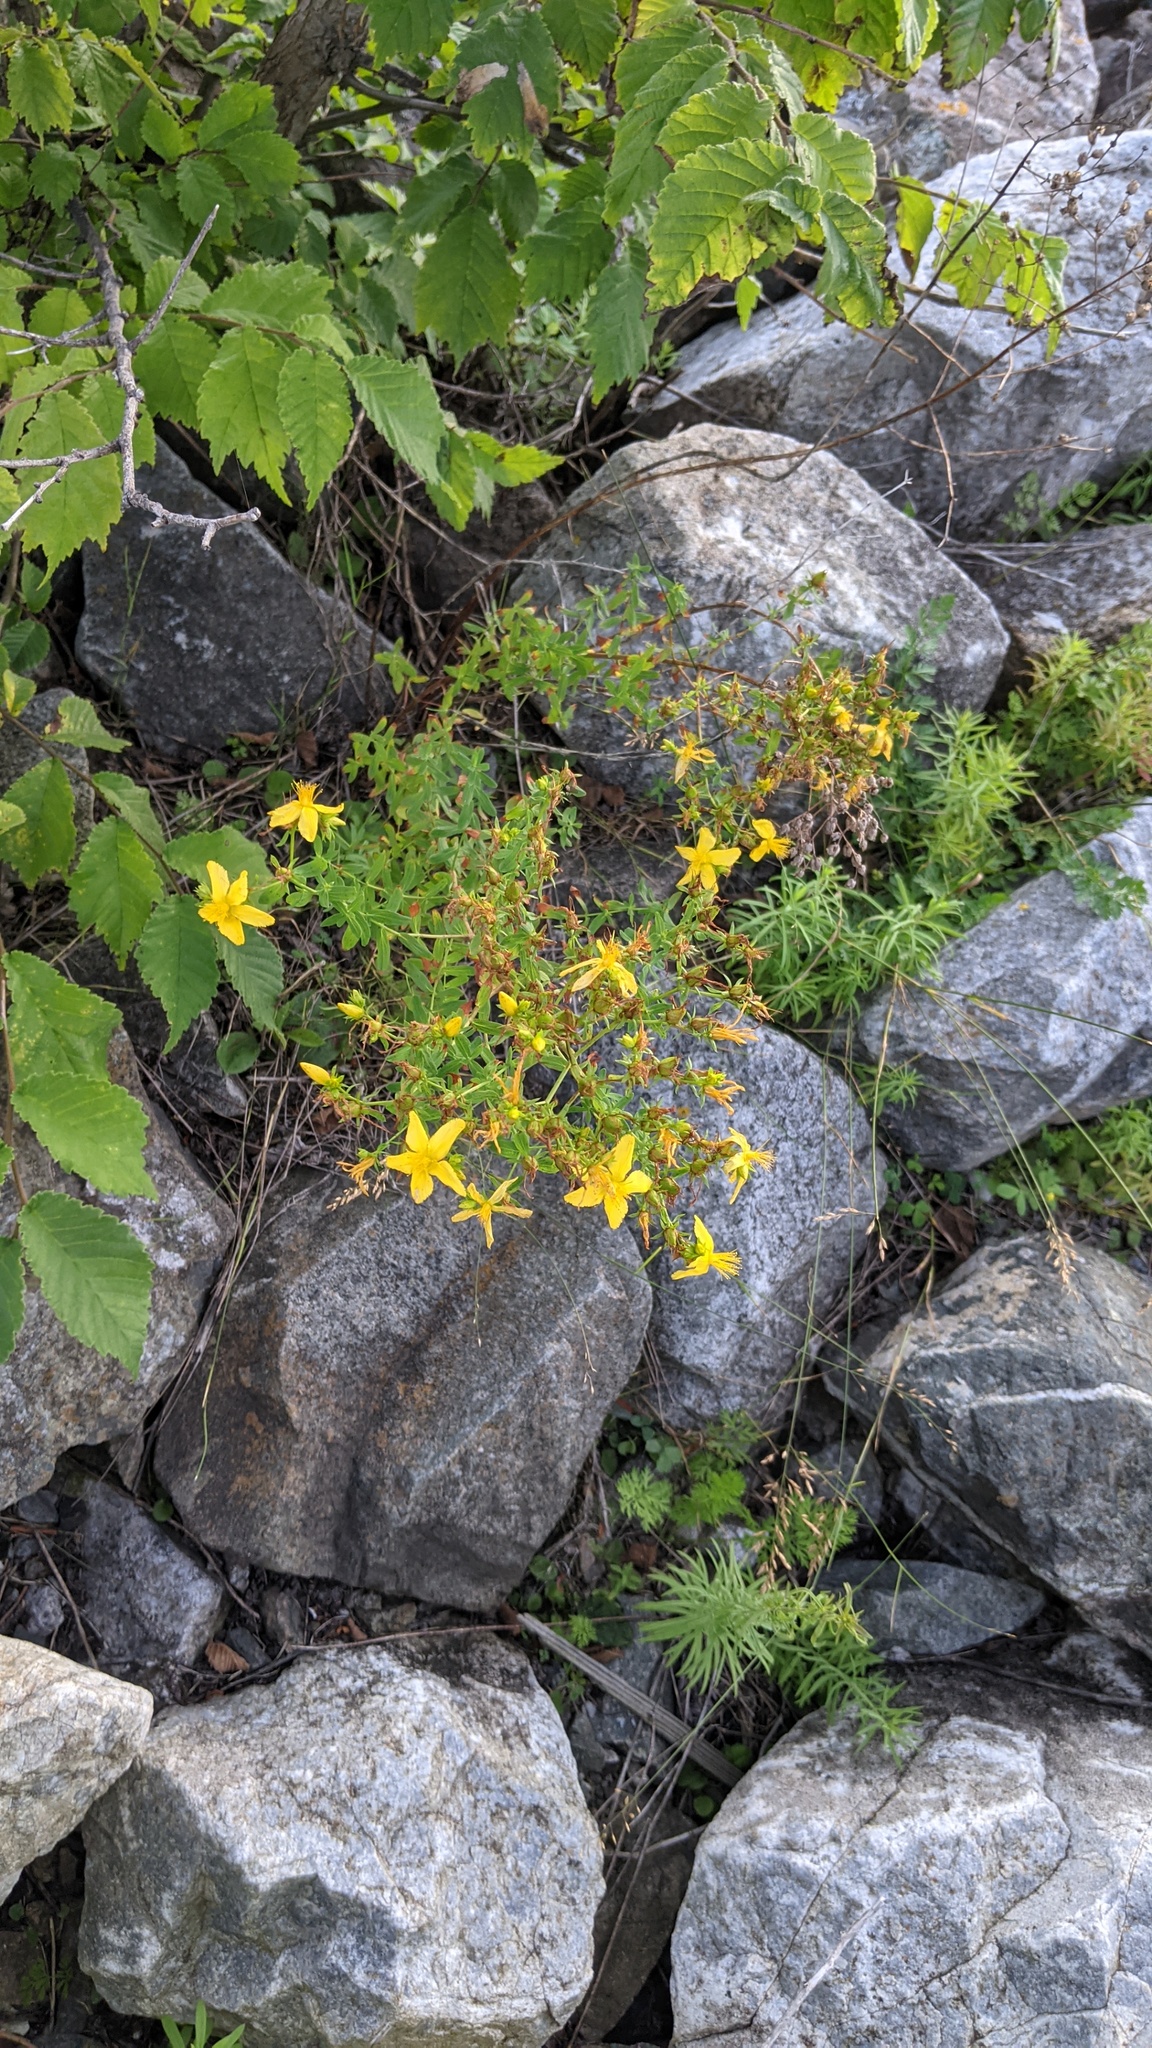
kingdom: Plantae
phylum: Tracheophyta
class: Magnoliopsida
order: Malpighiales
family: Hypericaceae
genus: Hypericum
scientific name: Hypericum perforatum
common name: Common st. johnswort
